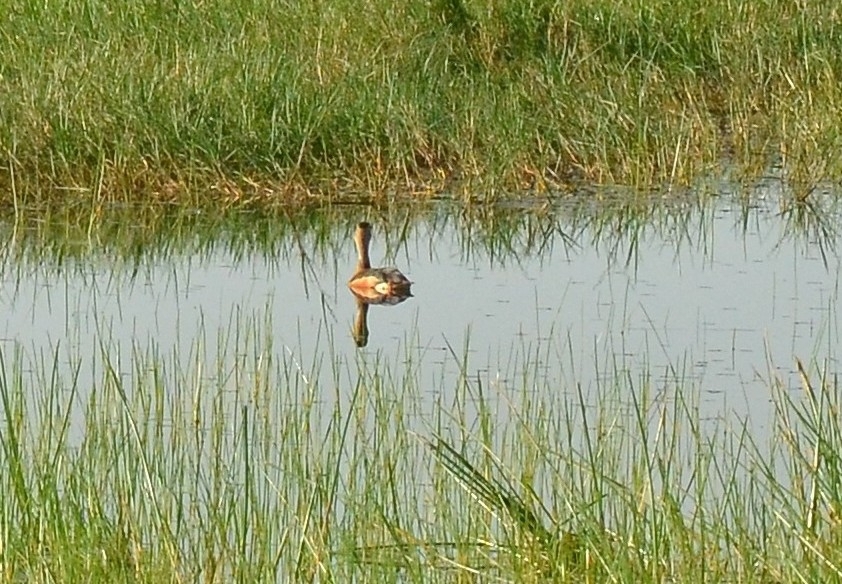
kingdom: Animalia
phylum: Chordata
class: Aves
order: Anseriformes
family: Anatidae
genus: Dendrocygna
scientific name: Dendrocygna javanica
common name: Lesser whistling-duck
